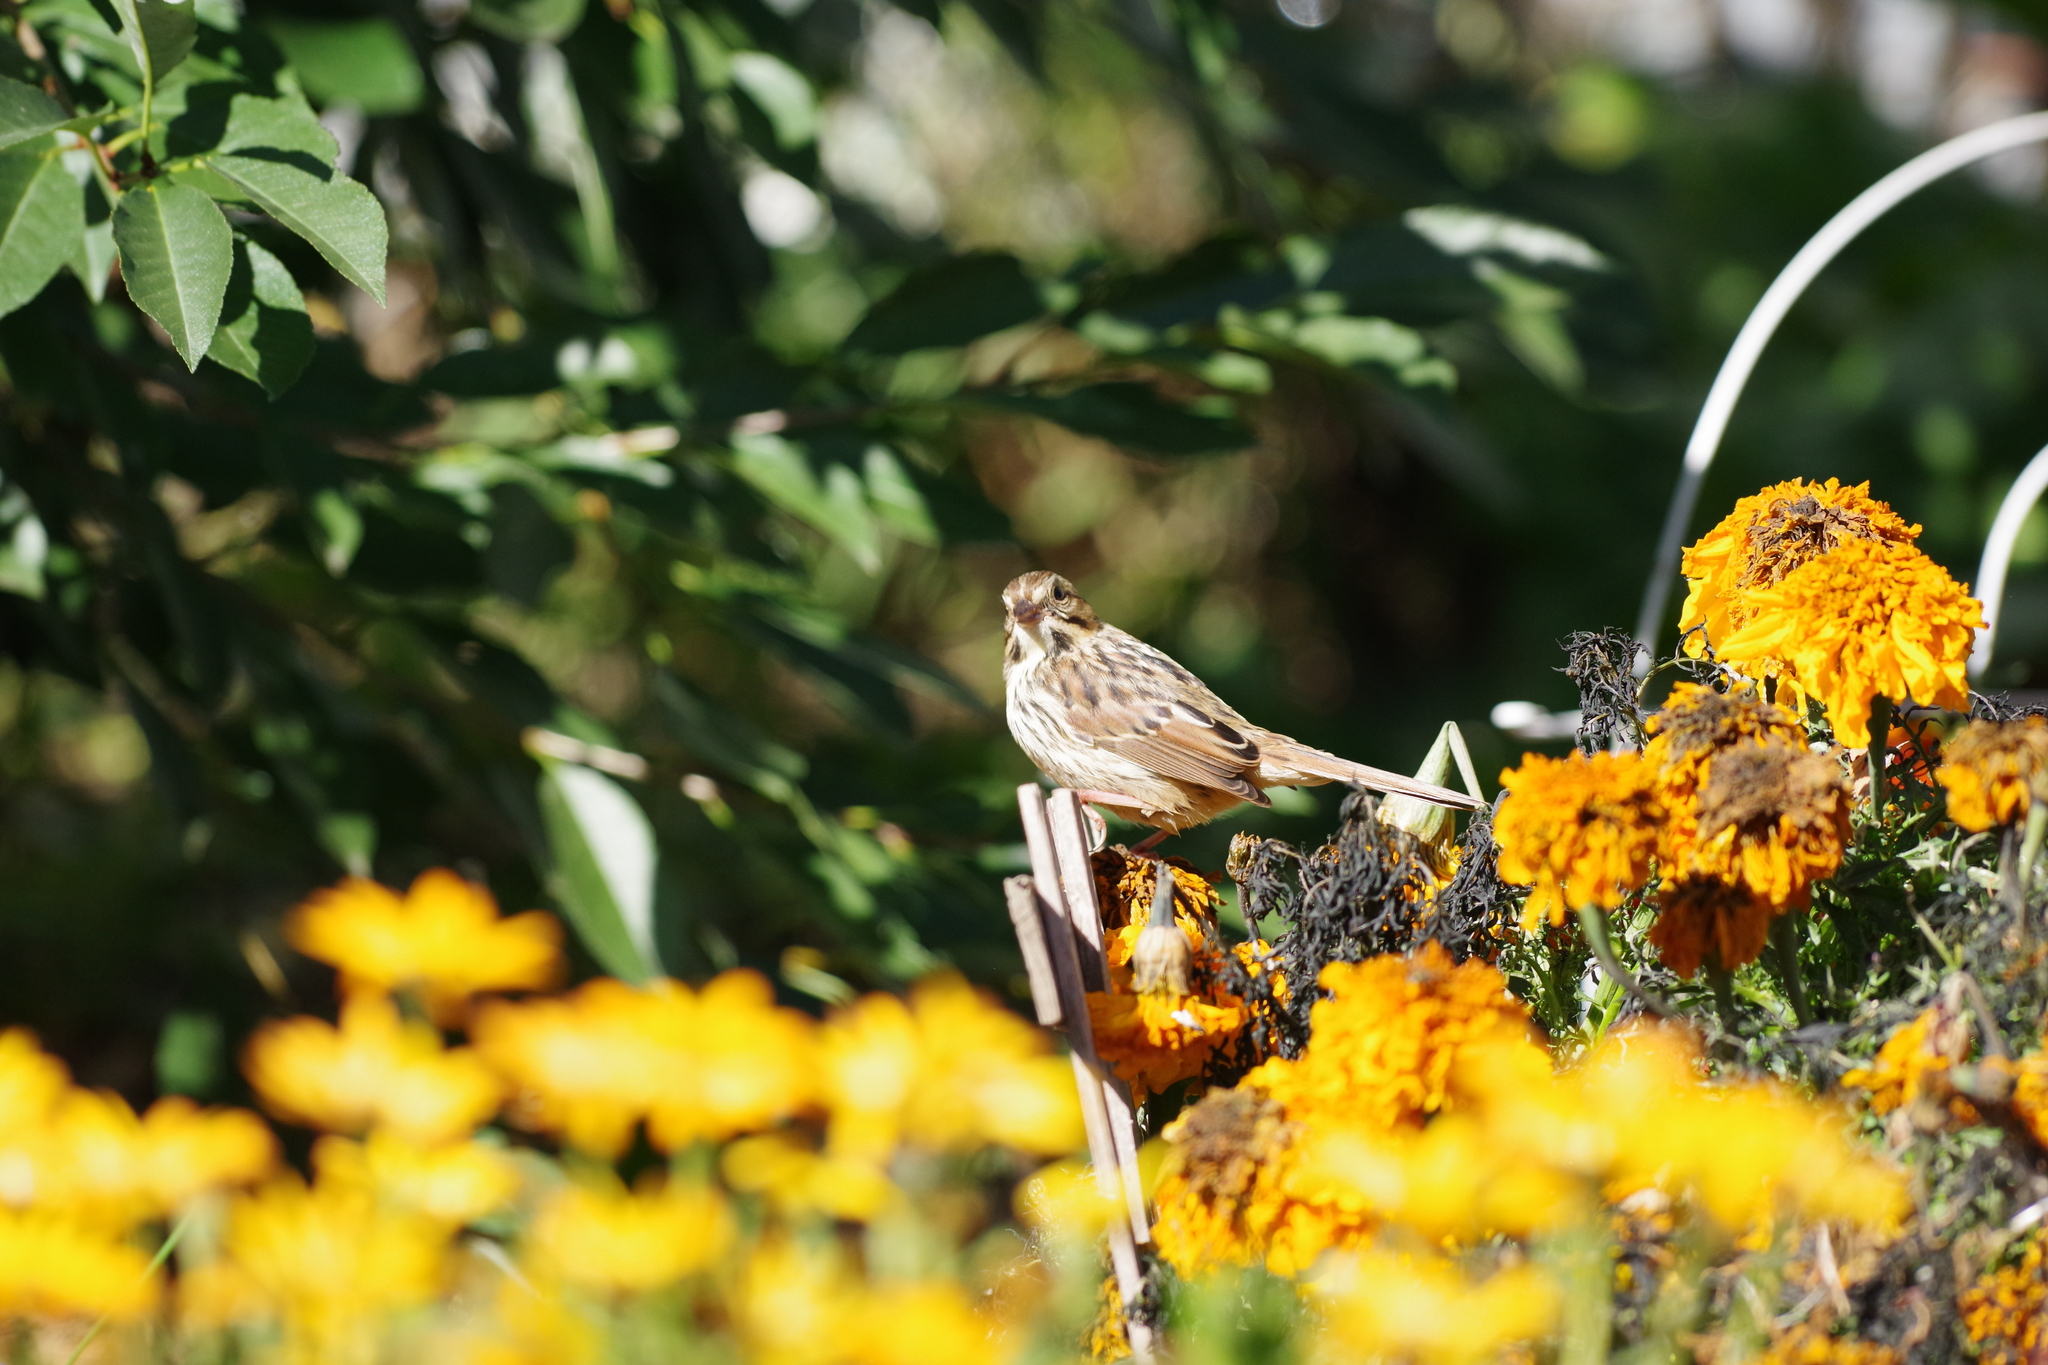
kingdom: Animalia
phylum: Chordata
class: Aves
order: Passeriformes
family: Passerellidae
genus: Melospiza
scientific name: Melospiza melodia
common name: Song sparrow
